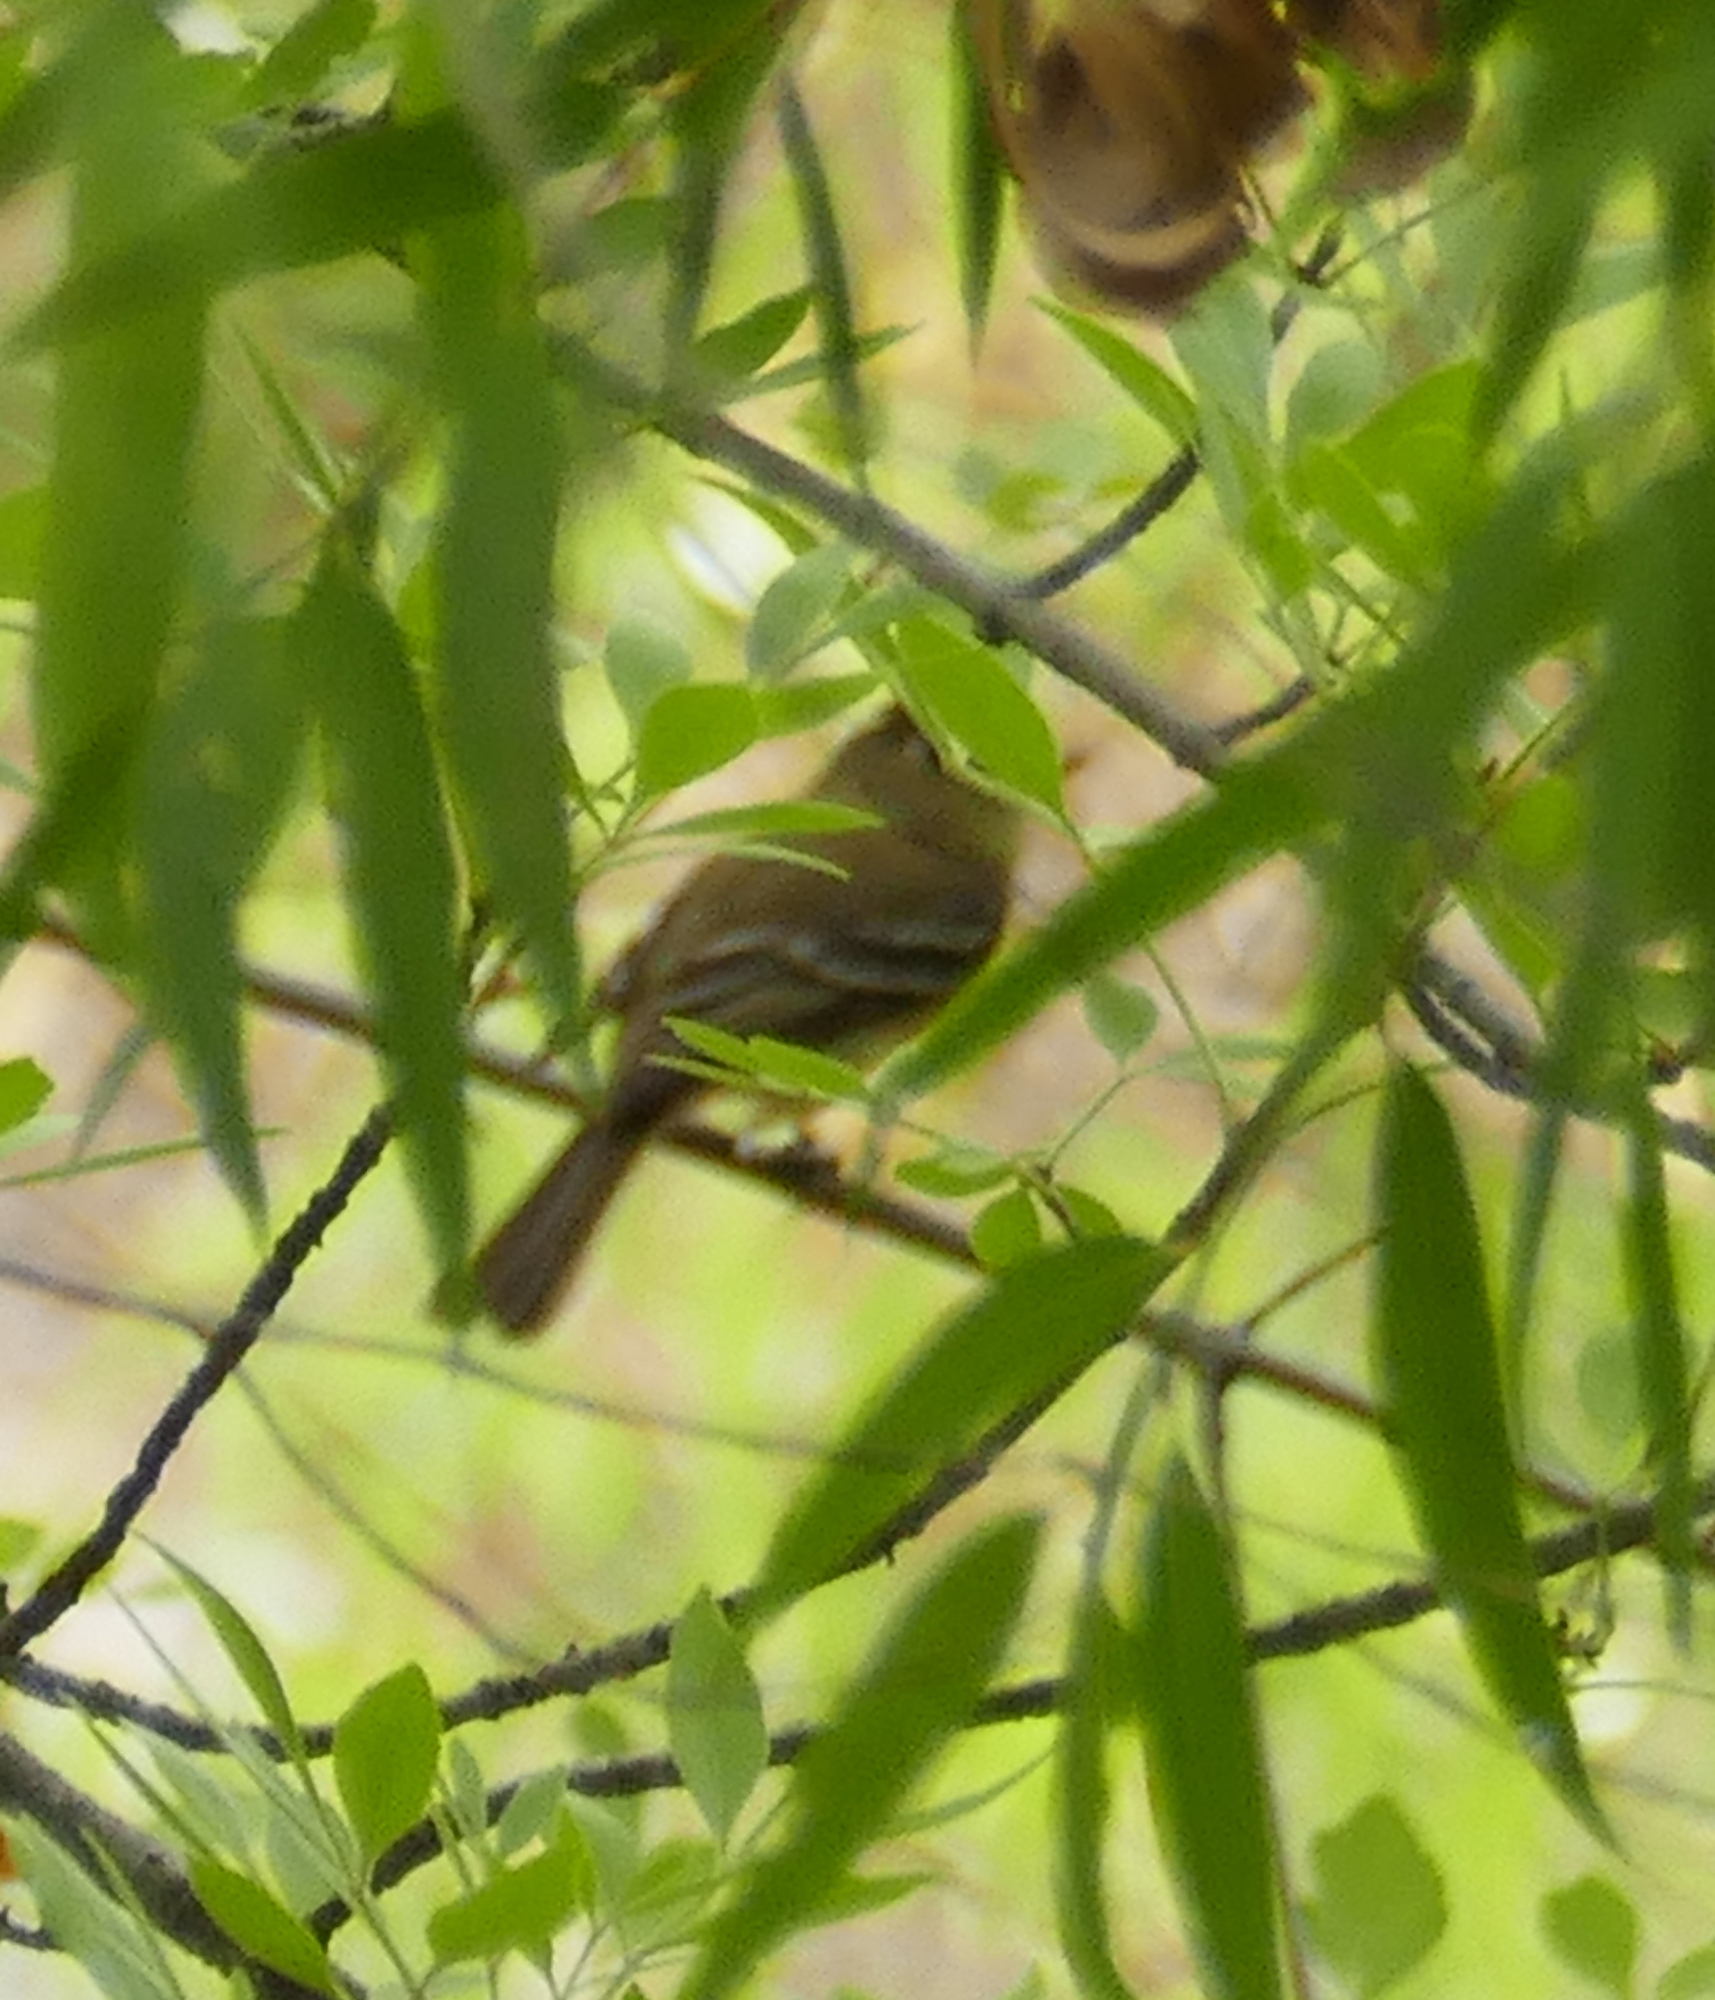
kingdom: Animalia
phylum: Chordata
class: Aves
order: Passeriformes
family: Tyrannidae
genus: Empidonax
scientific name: Empidonax difficilis
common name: Pacific-slope flycatcher
